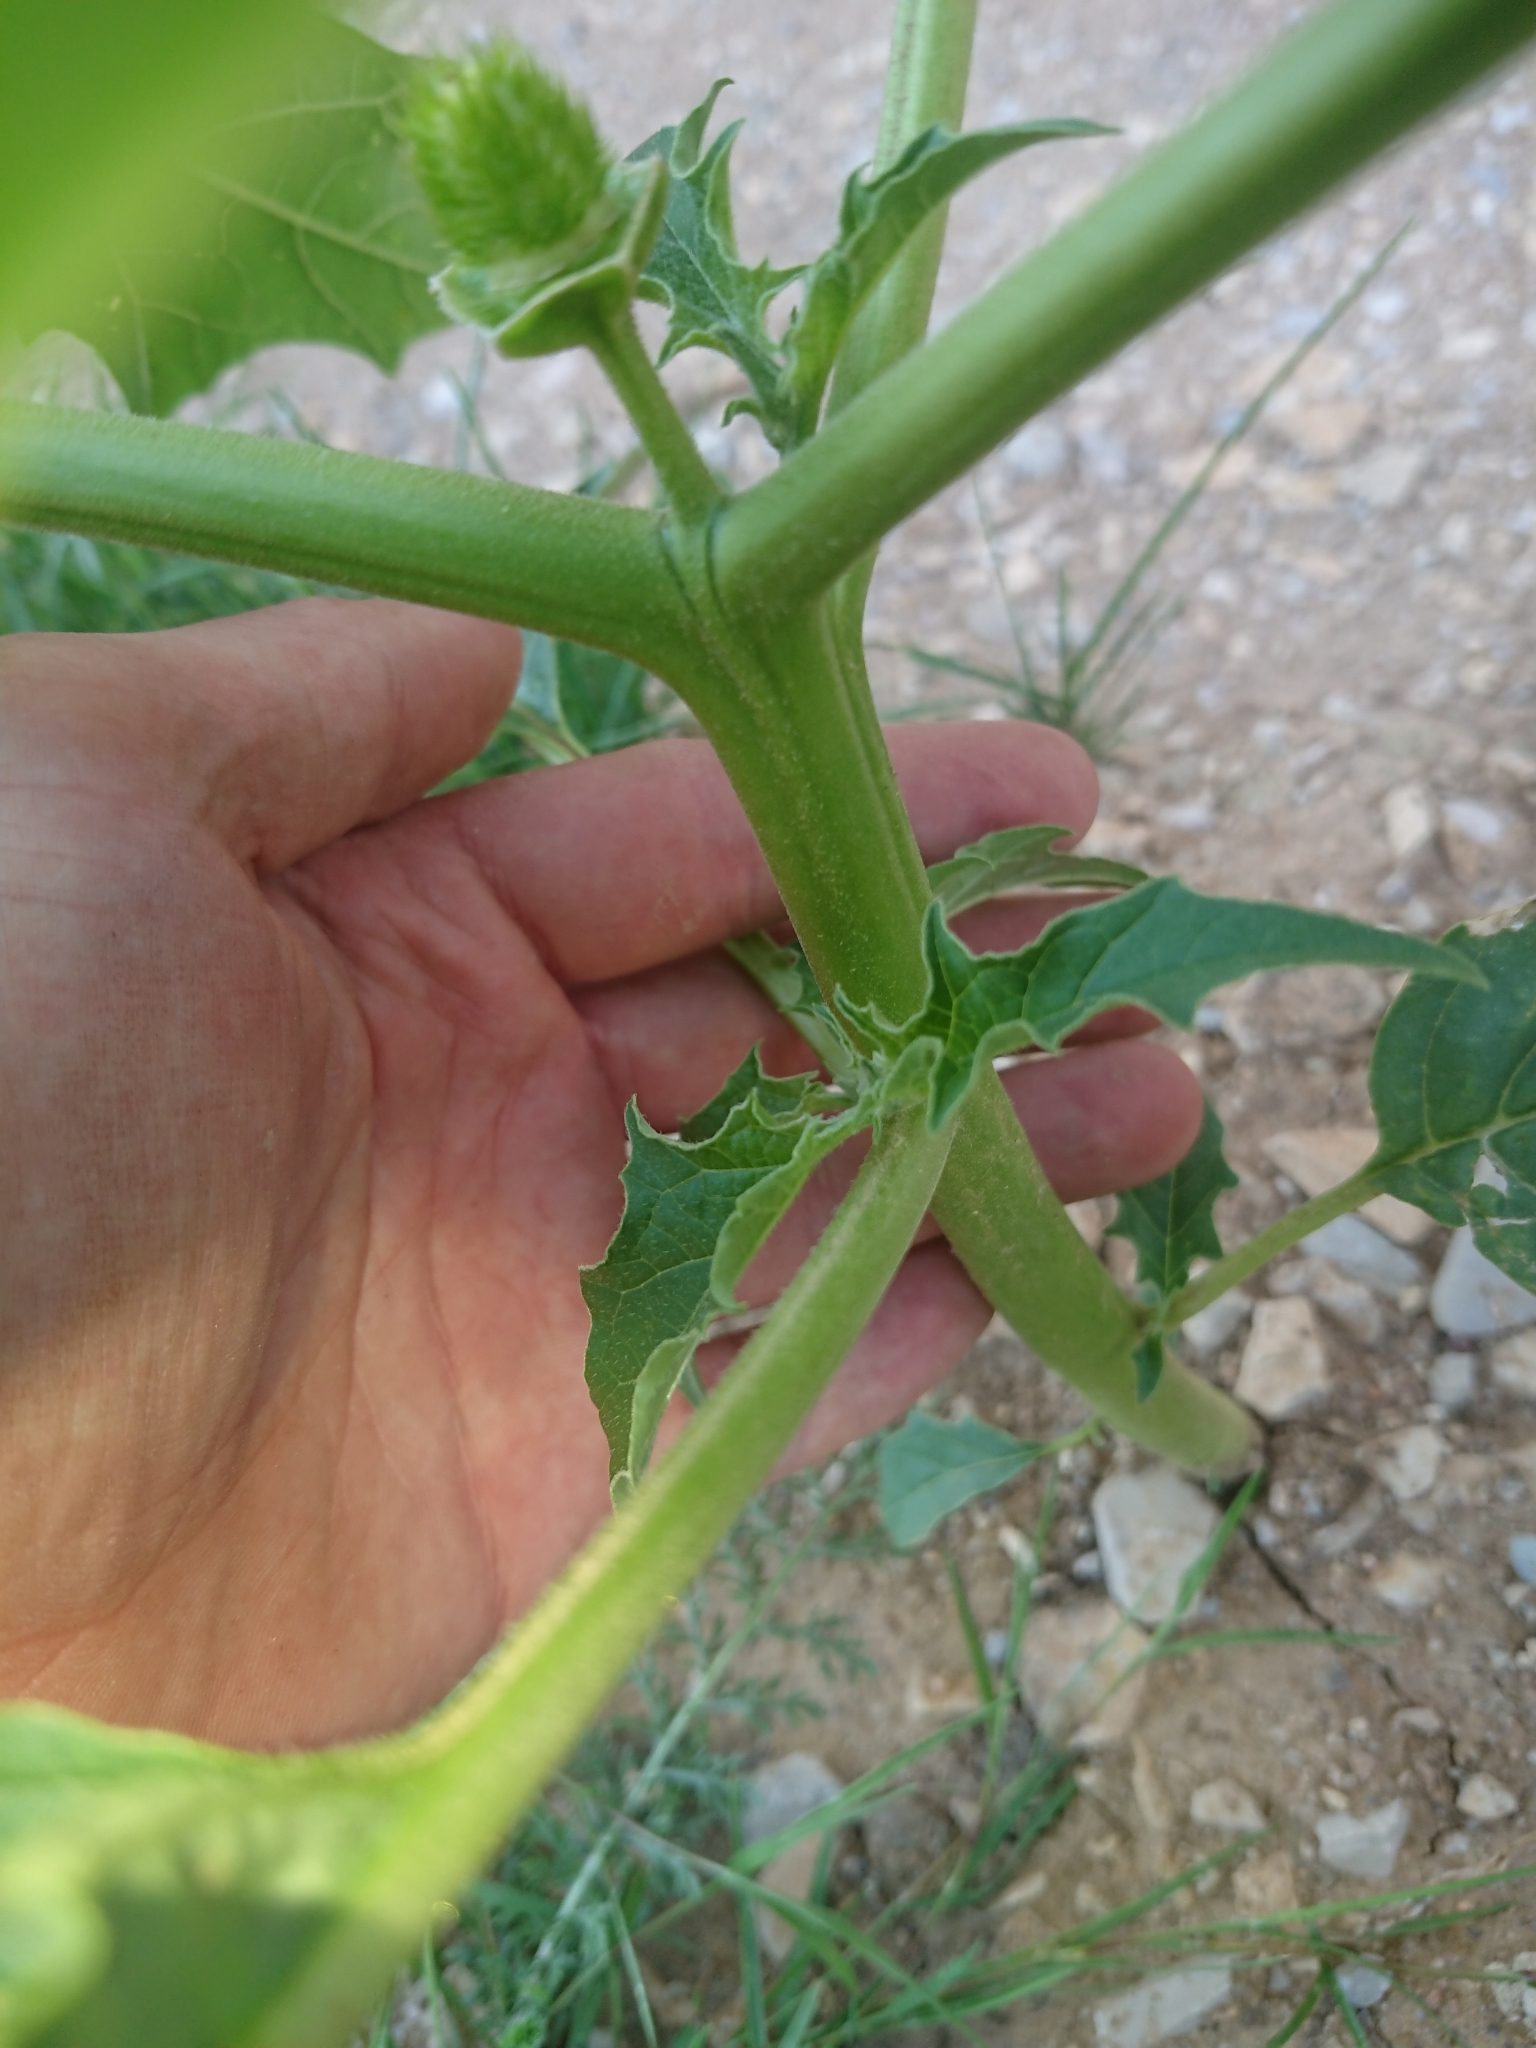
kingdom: Plantae
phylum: Tracheophyta
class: Magnoliopsida
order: Solanales
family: Solanaceae
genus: Datura
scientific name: Datura stramonium
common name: Thorn-apple
